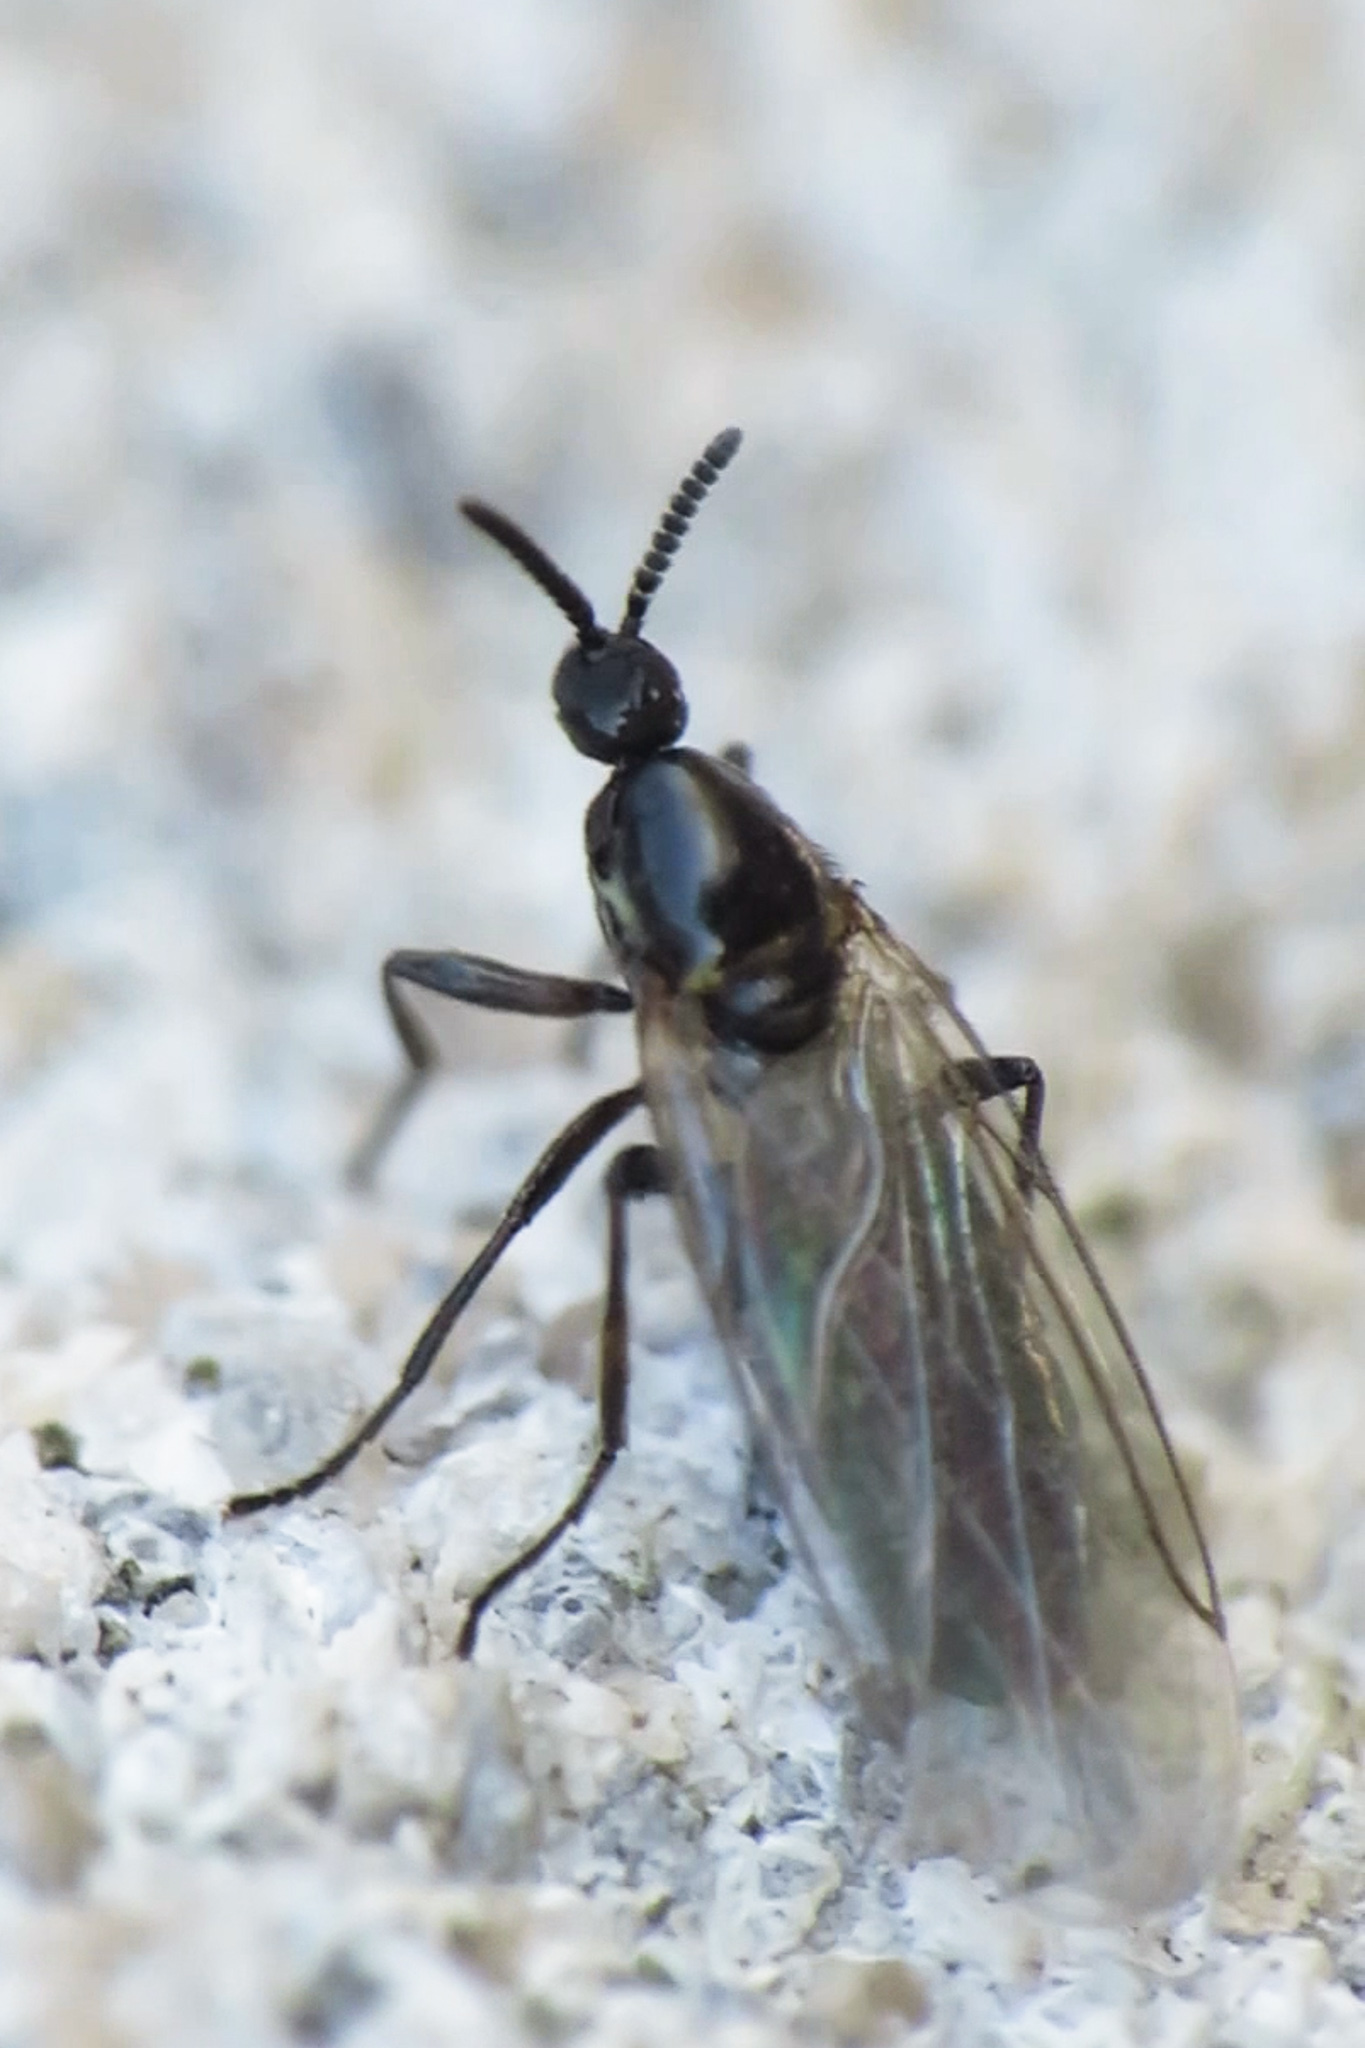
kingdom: Animalia
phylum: Arthropoda
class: Insecta
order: Diptera
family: Scatopsidae
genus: Scatopse
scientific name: Scatopse notata
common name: Minute black scavenger fly
